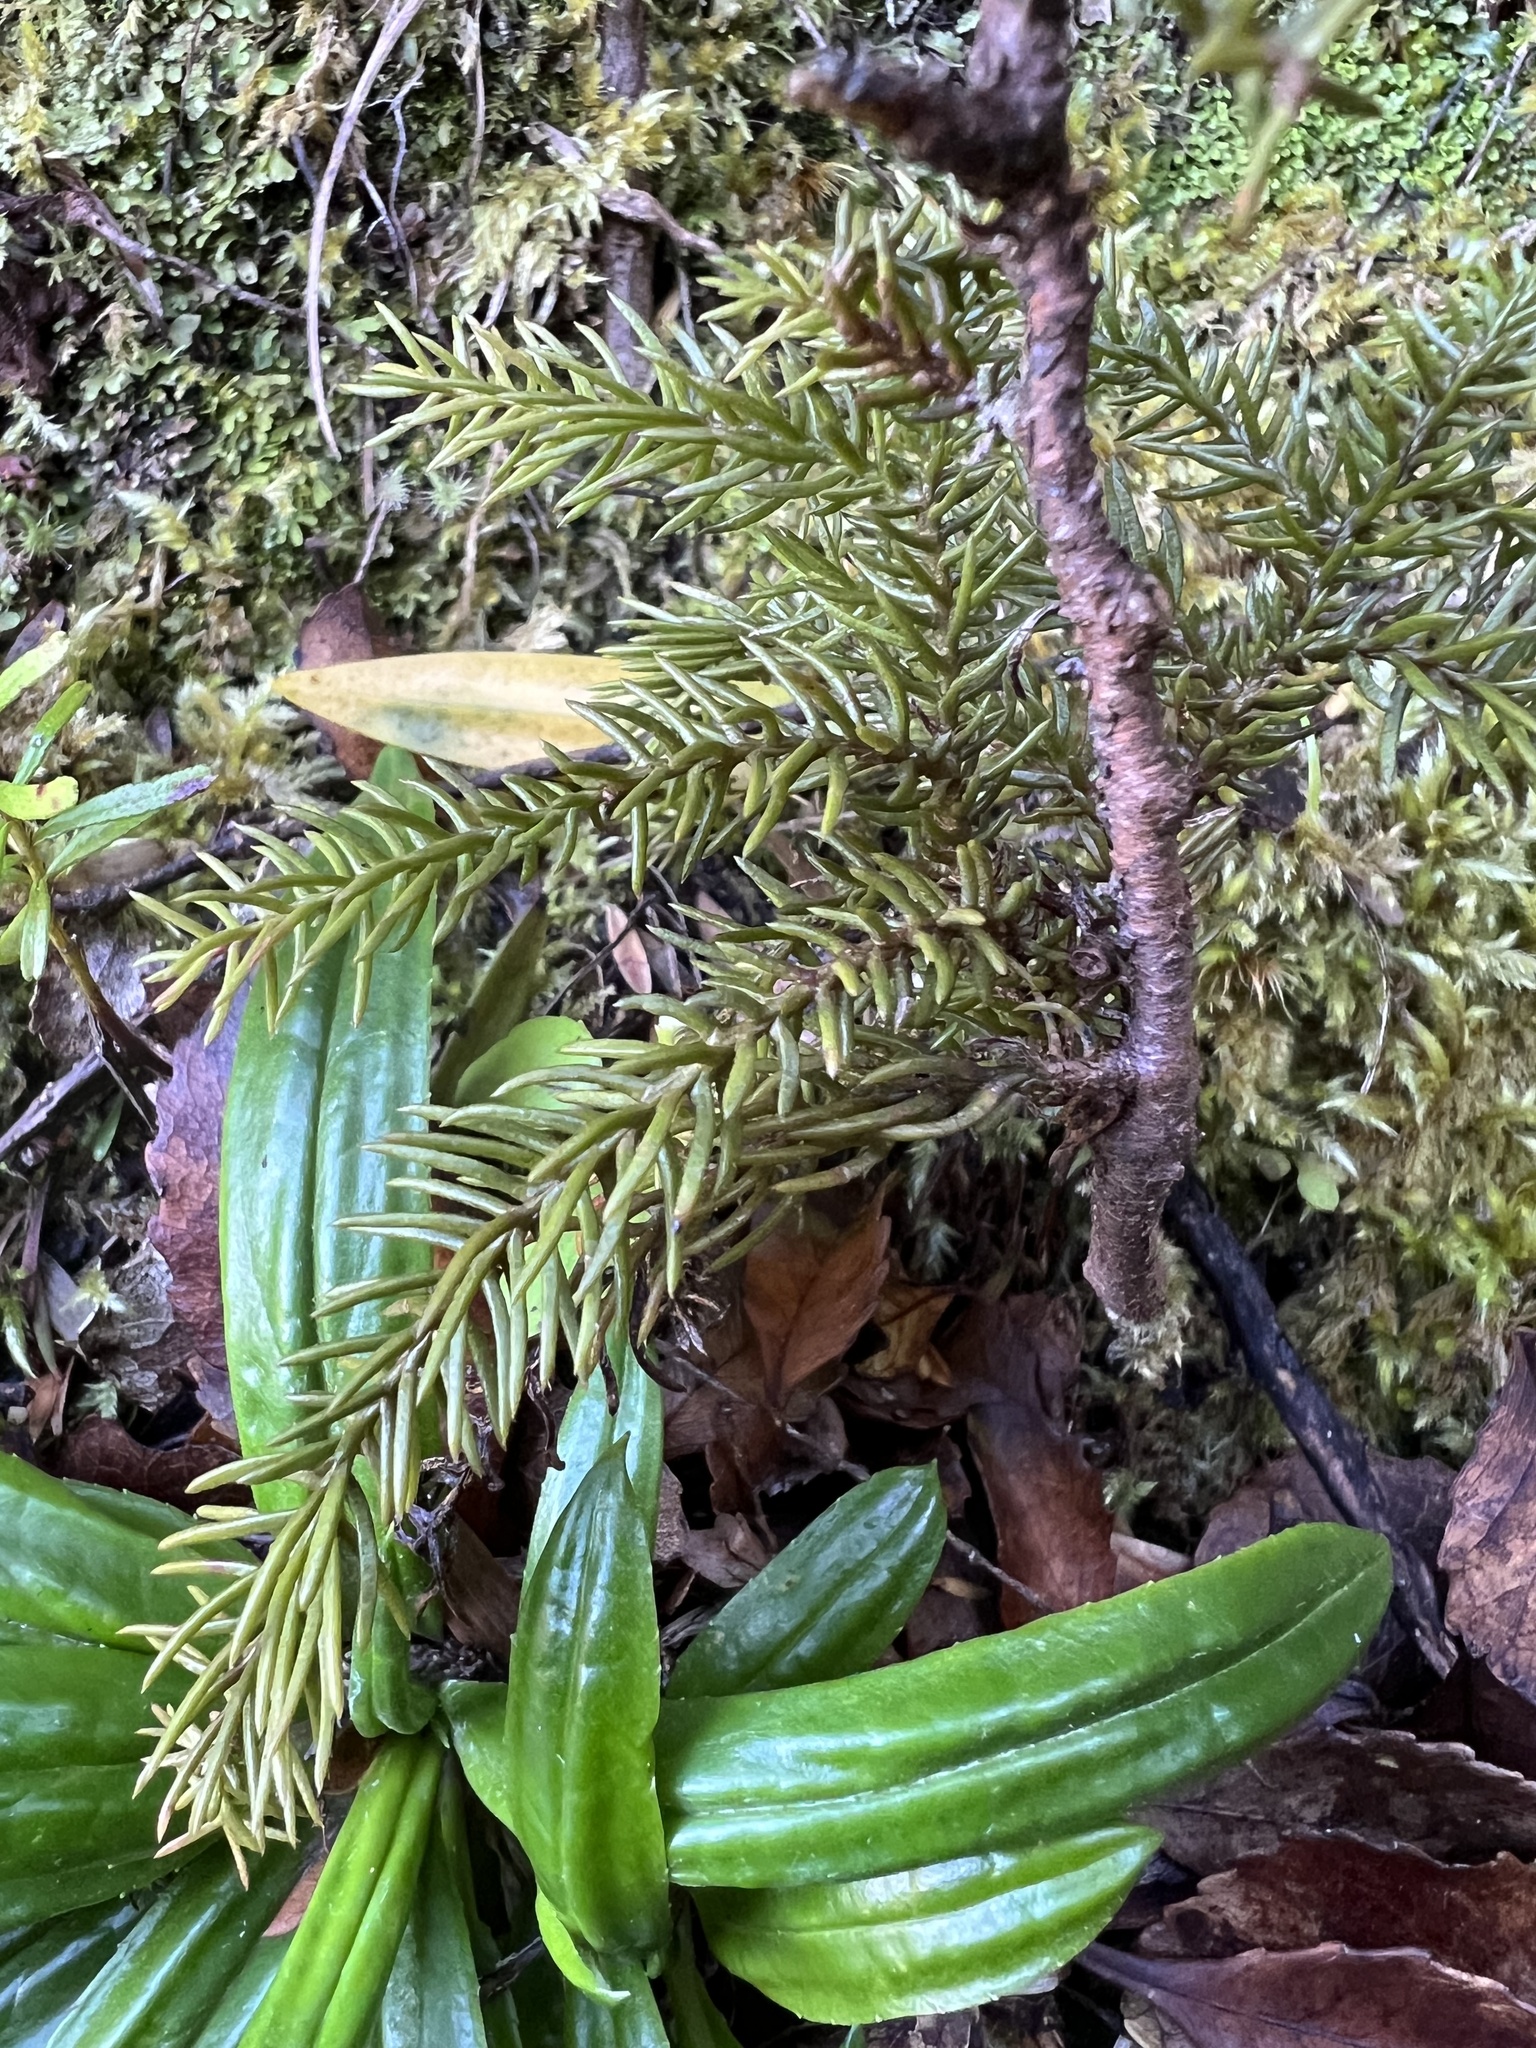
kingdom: Plantae
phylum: Tracheophyta
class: Pinopsida
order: Pinales
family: Podocarpaceae
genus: Lepidothamnus
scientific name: Lepidothamnus intermedius
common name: Yellow silver pine
